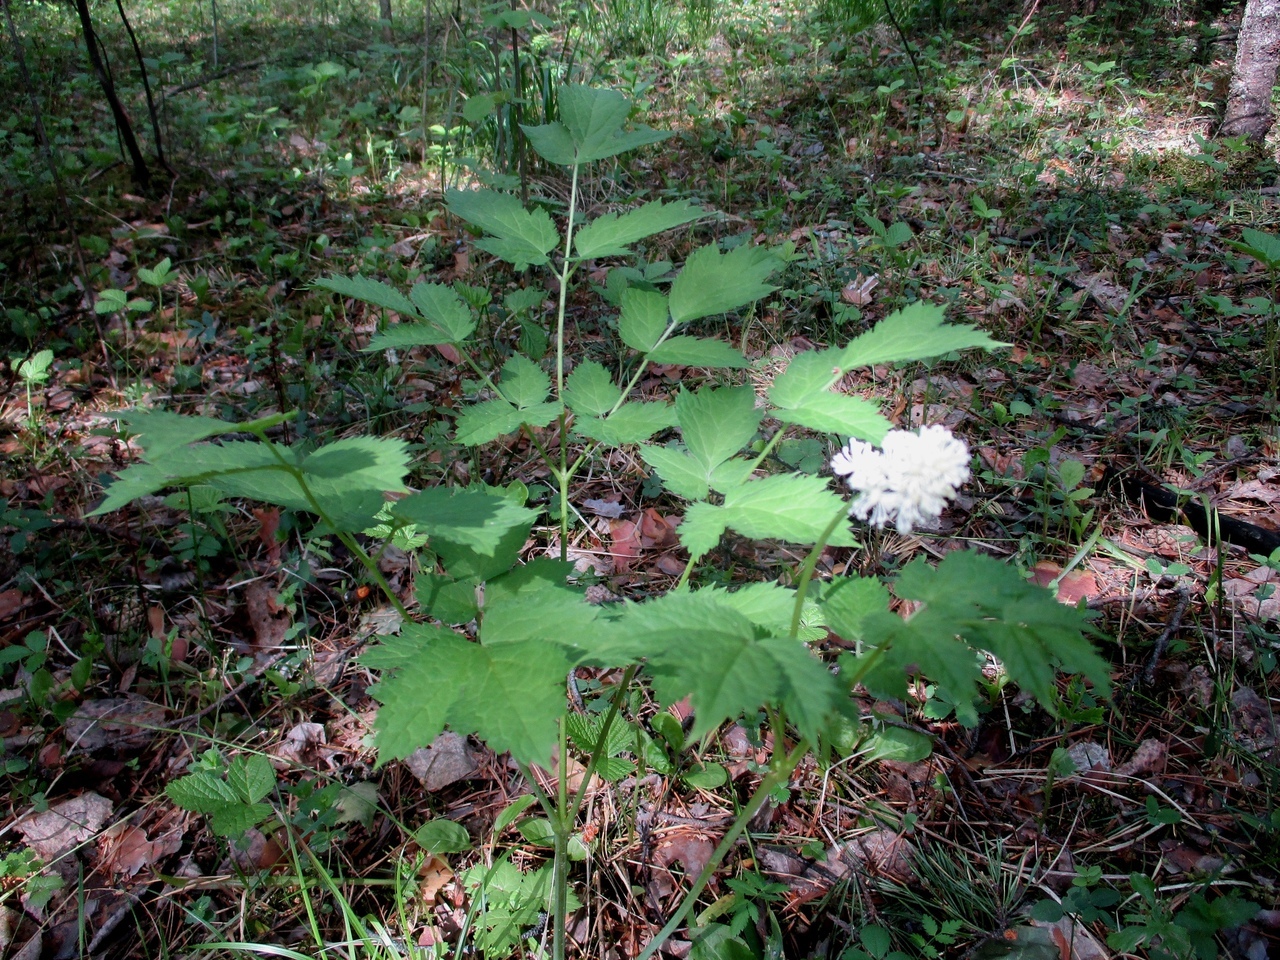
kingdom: Plantae
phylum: Tracheophyta
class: Magnoliopsida
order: Ranunculales
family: Ranunculaceae
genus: Actaea
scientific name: Actaea erythrocarpa
